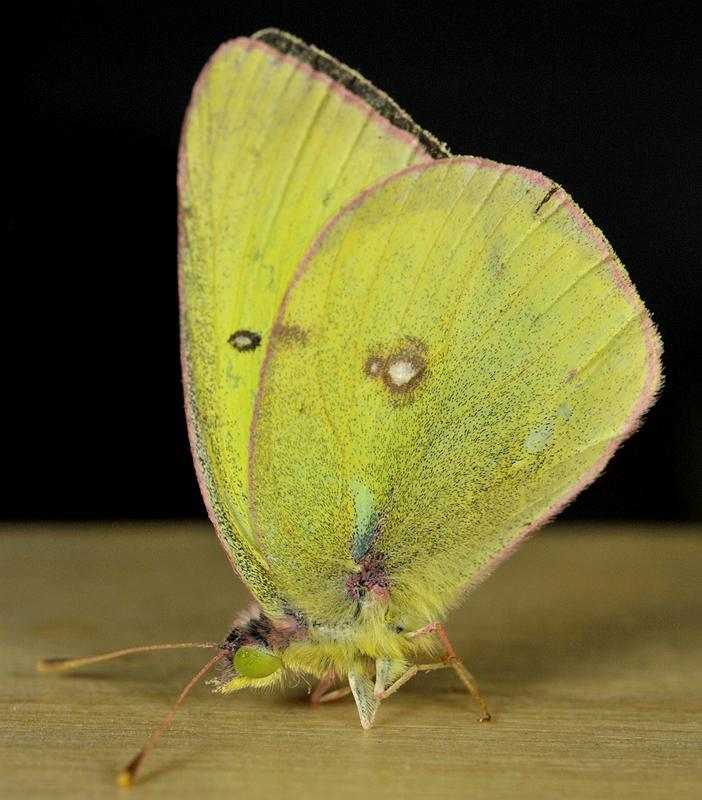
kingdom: Animalia
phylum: Arthropoda
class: Insecta
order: Lepidoptera
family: Pieridae
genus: Colias
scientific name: Colias philodice
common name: Clouded sulphur
